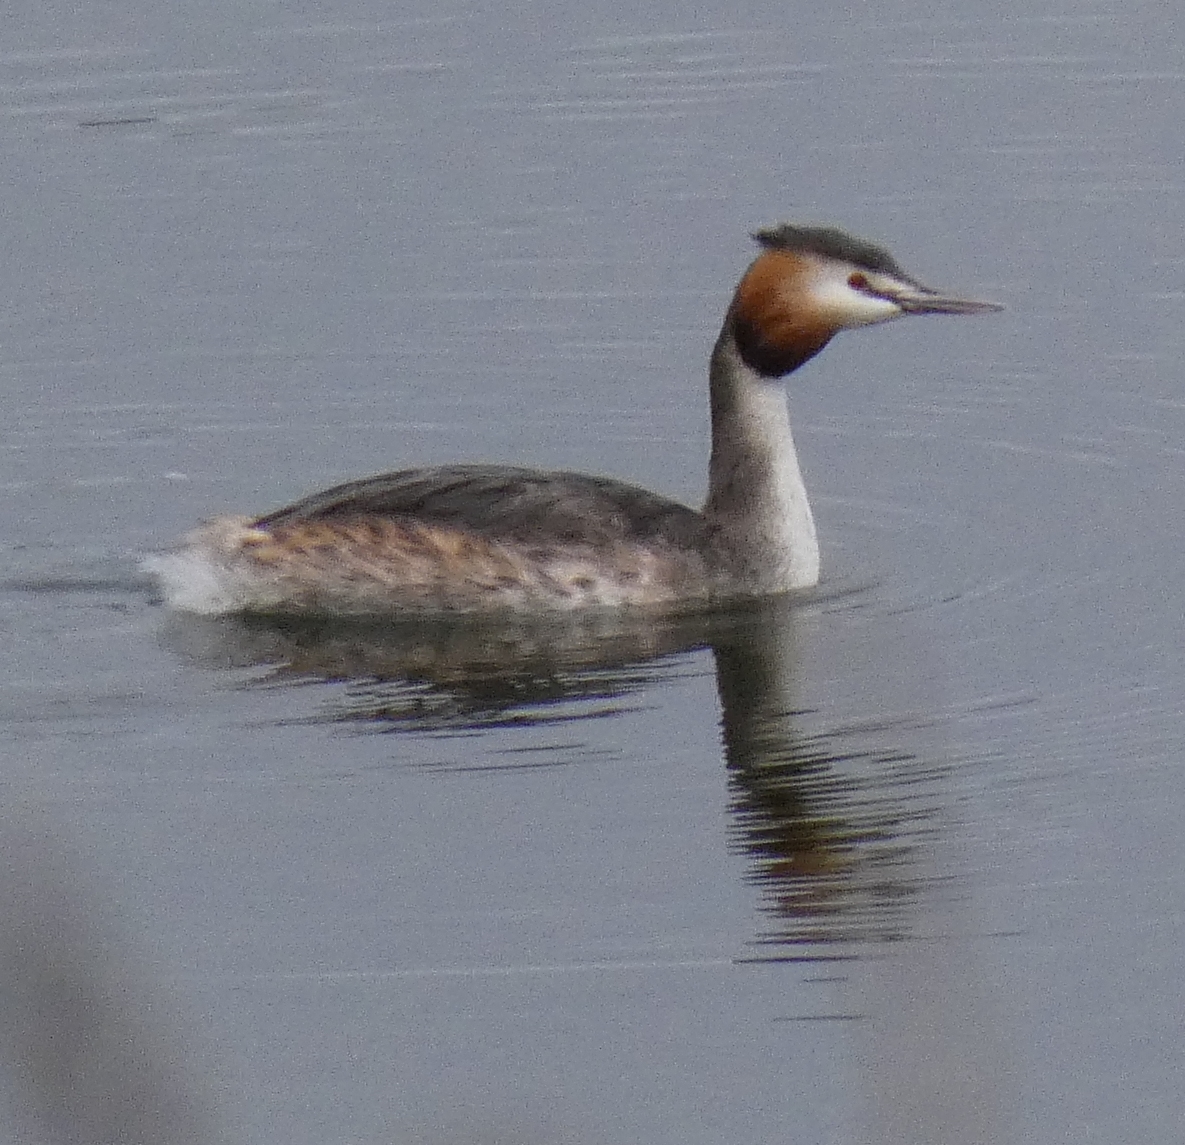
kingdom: Animalia
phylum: Chordata
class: Aves
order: Podicipediformes
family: Podicipedidae
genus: Podiceps
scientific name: Podiceps cristatus
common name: Great crested grebe
